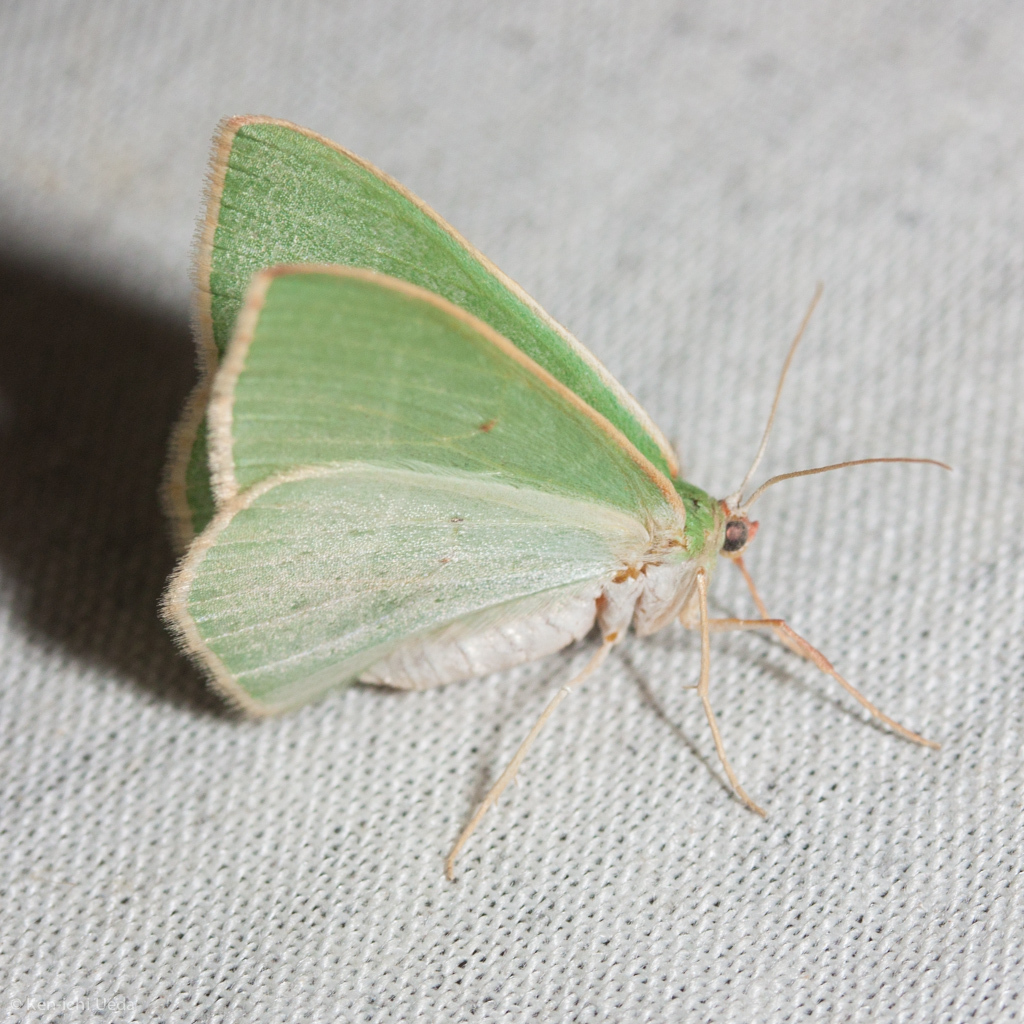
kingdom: Animalia
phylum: Arthropoda
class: Insecta
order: Lepidoptera
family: Geometridae
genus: Nemoria
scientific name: Nemoria darwiniata
